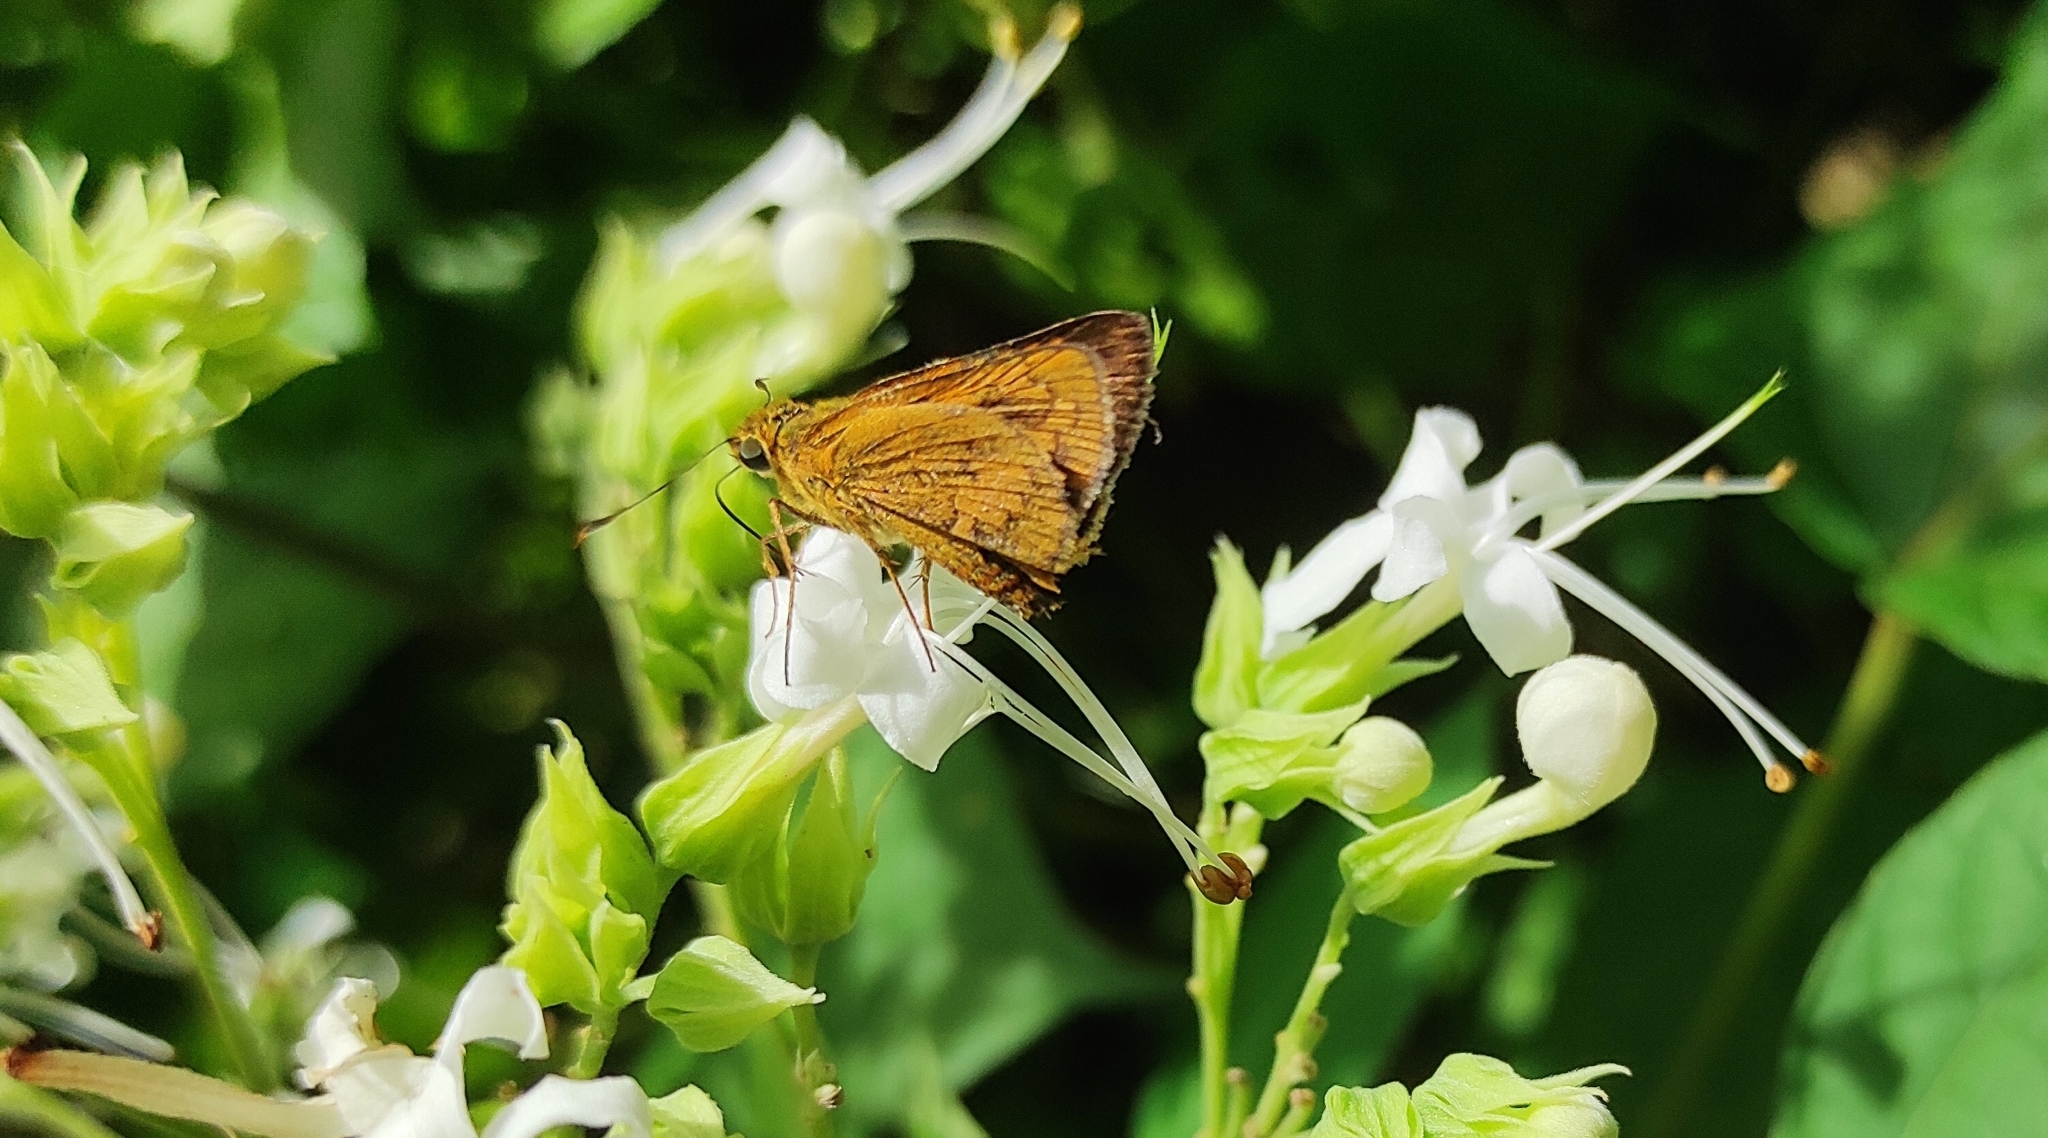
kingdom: Animalia
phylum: Arthropoda
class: Insecta
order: Lepidoptera
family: Hesperiidae
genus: Telicota
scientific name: Telicota bambusae
